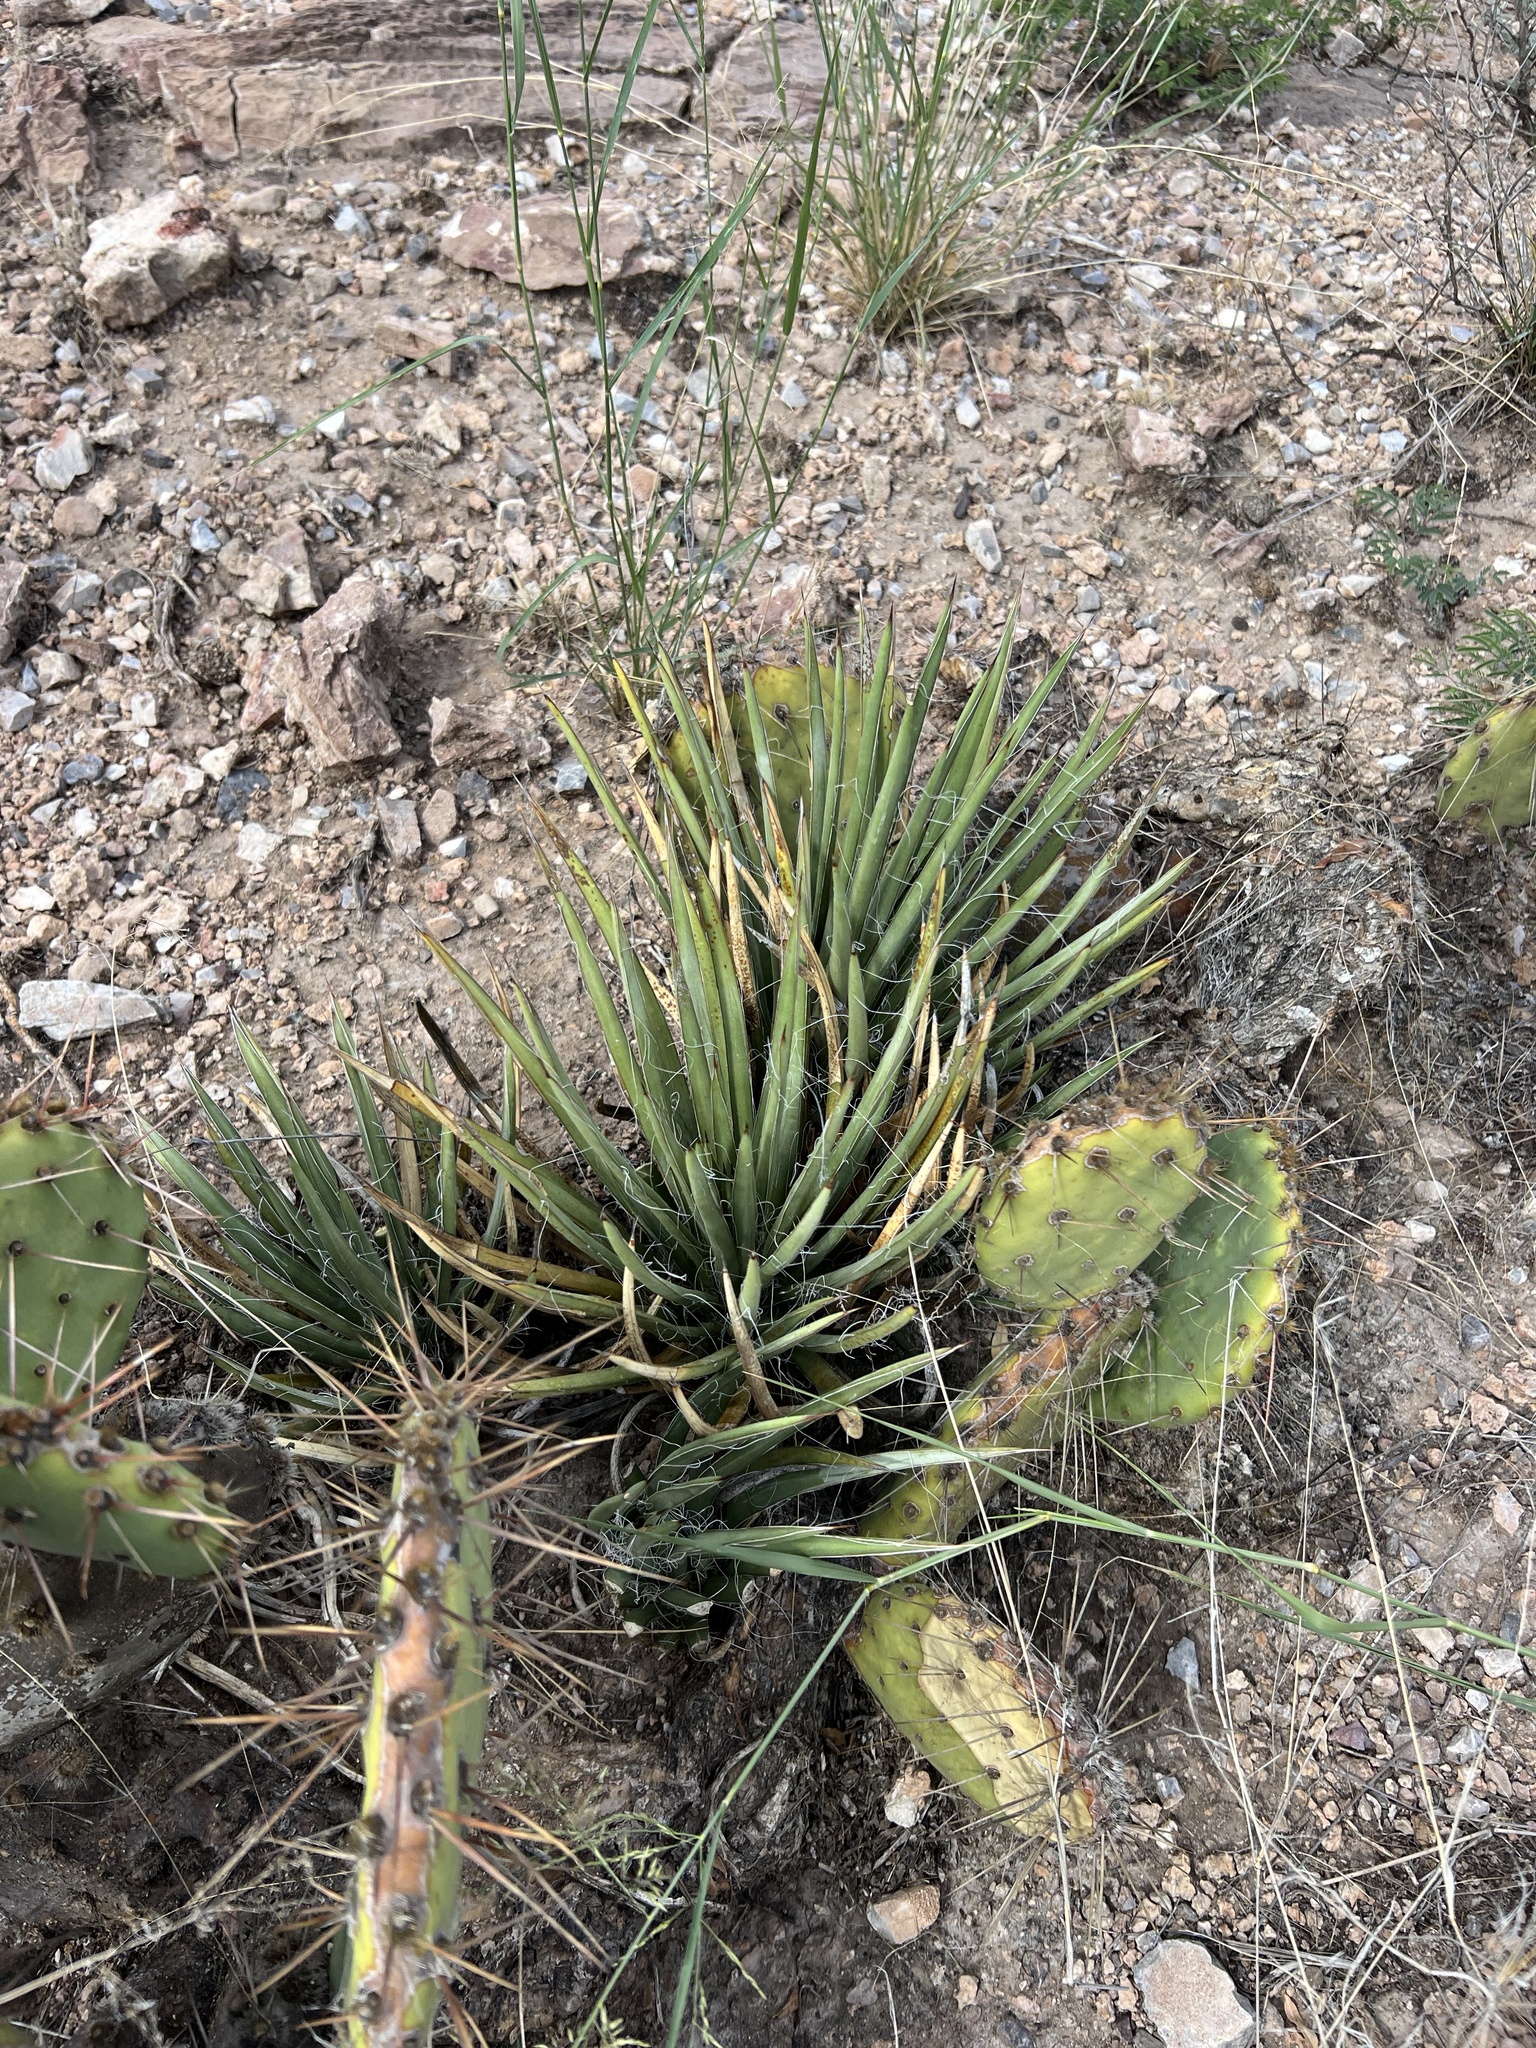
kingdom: Plantae
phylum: Tracheophyta
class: Liliopsida
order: Asparagales
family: Asparagaceae
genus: Agave
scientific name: Agave schottii
